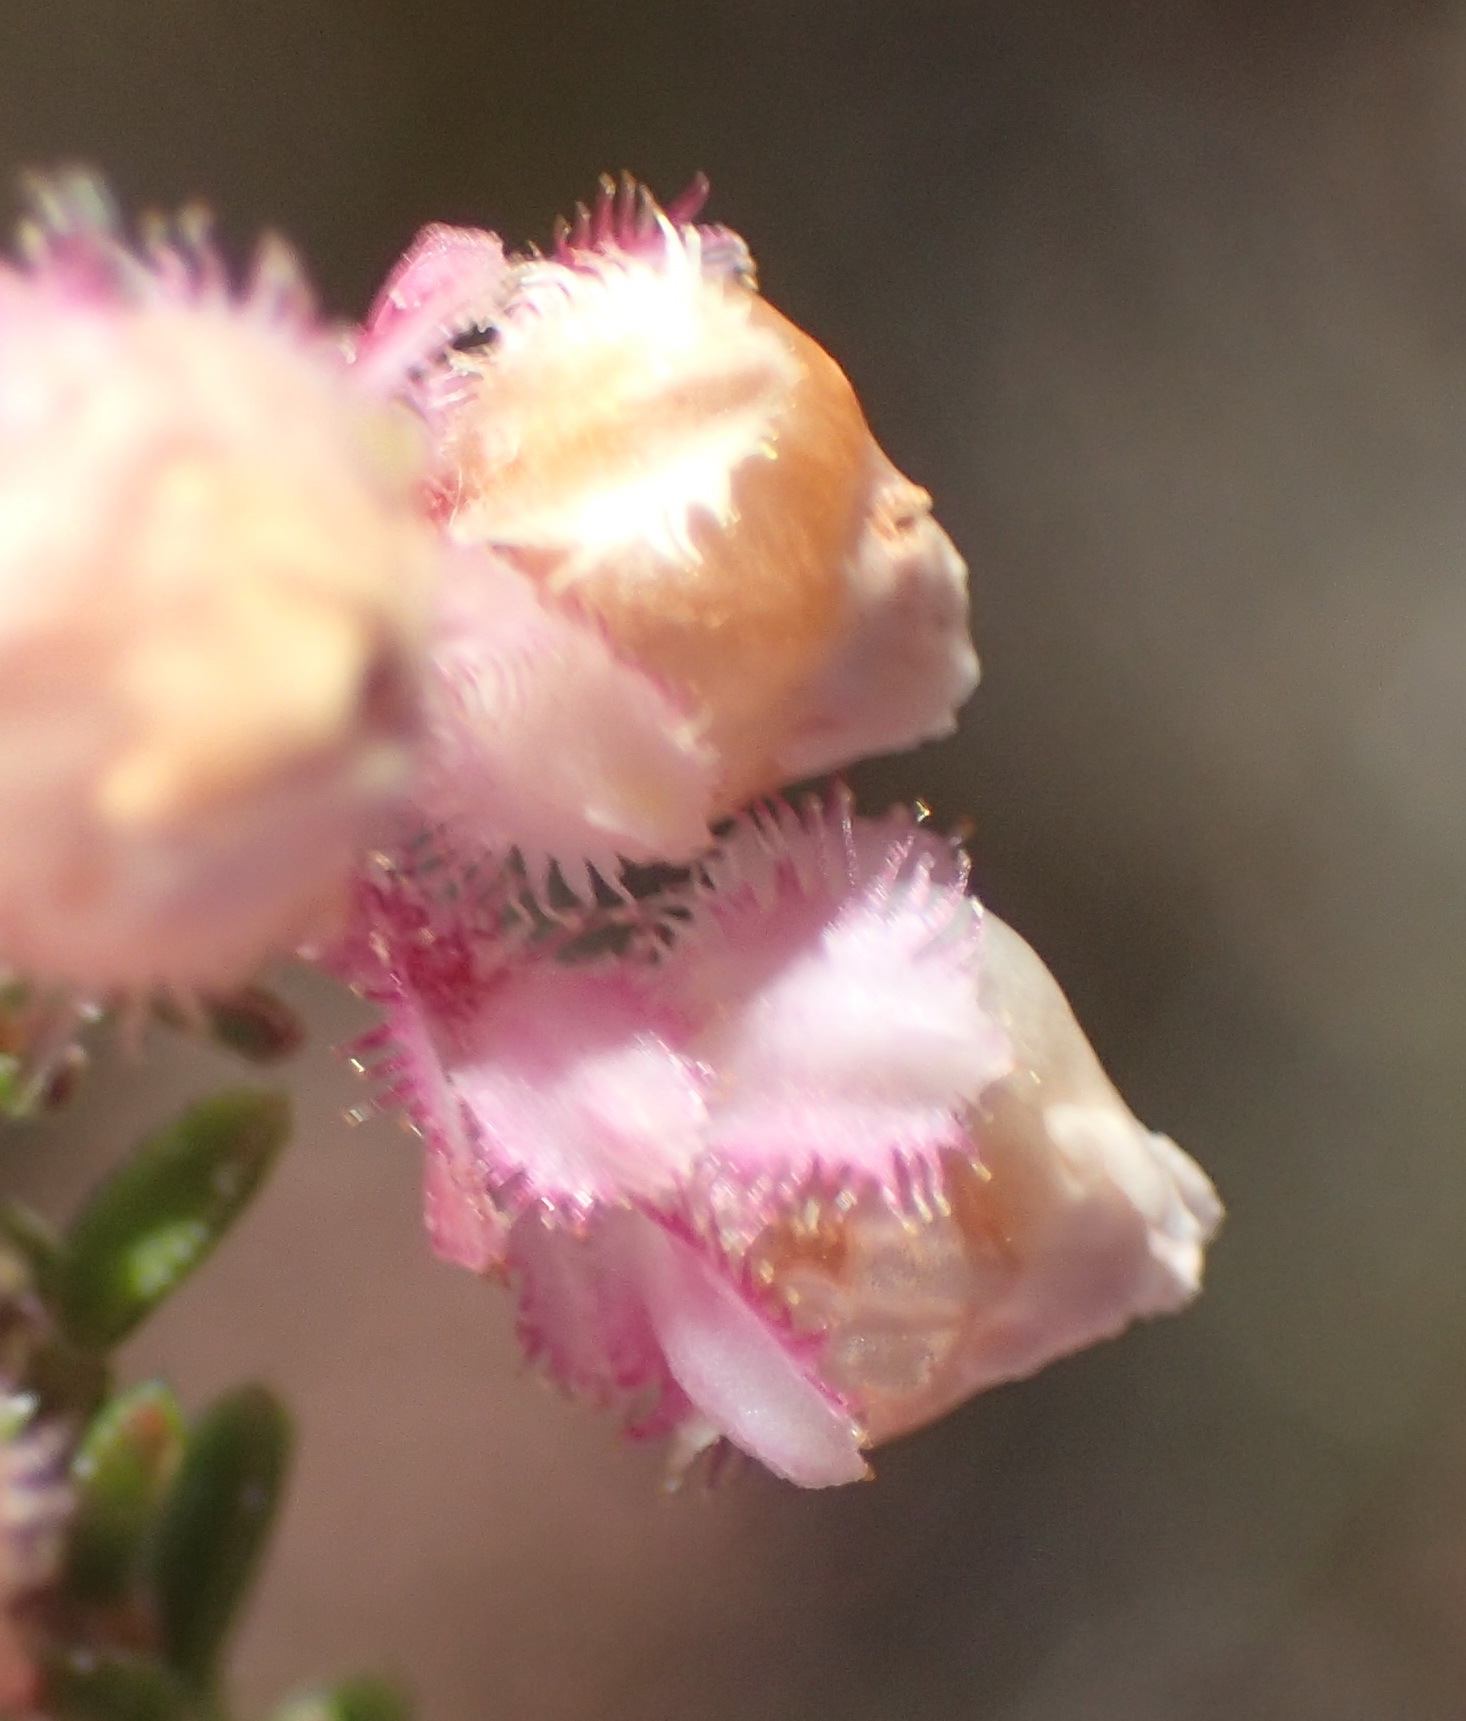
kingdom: Plantae
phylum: Tracheophyta
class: Magnoliopsida
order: Ericales
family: Ericaceae
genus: Erica
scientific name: Erica fimbriata
